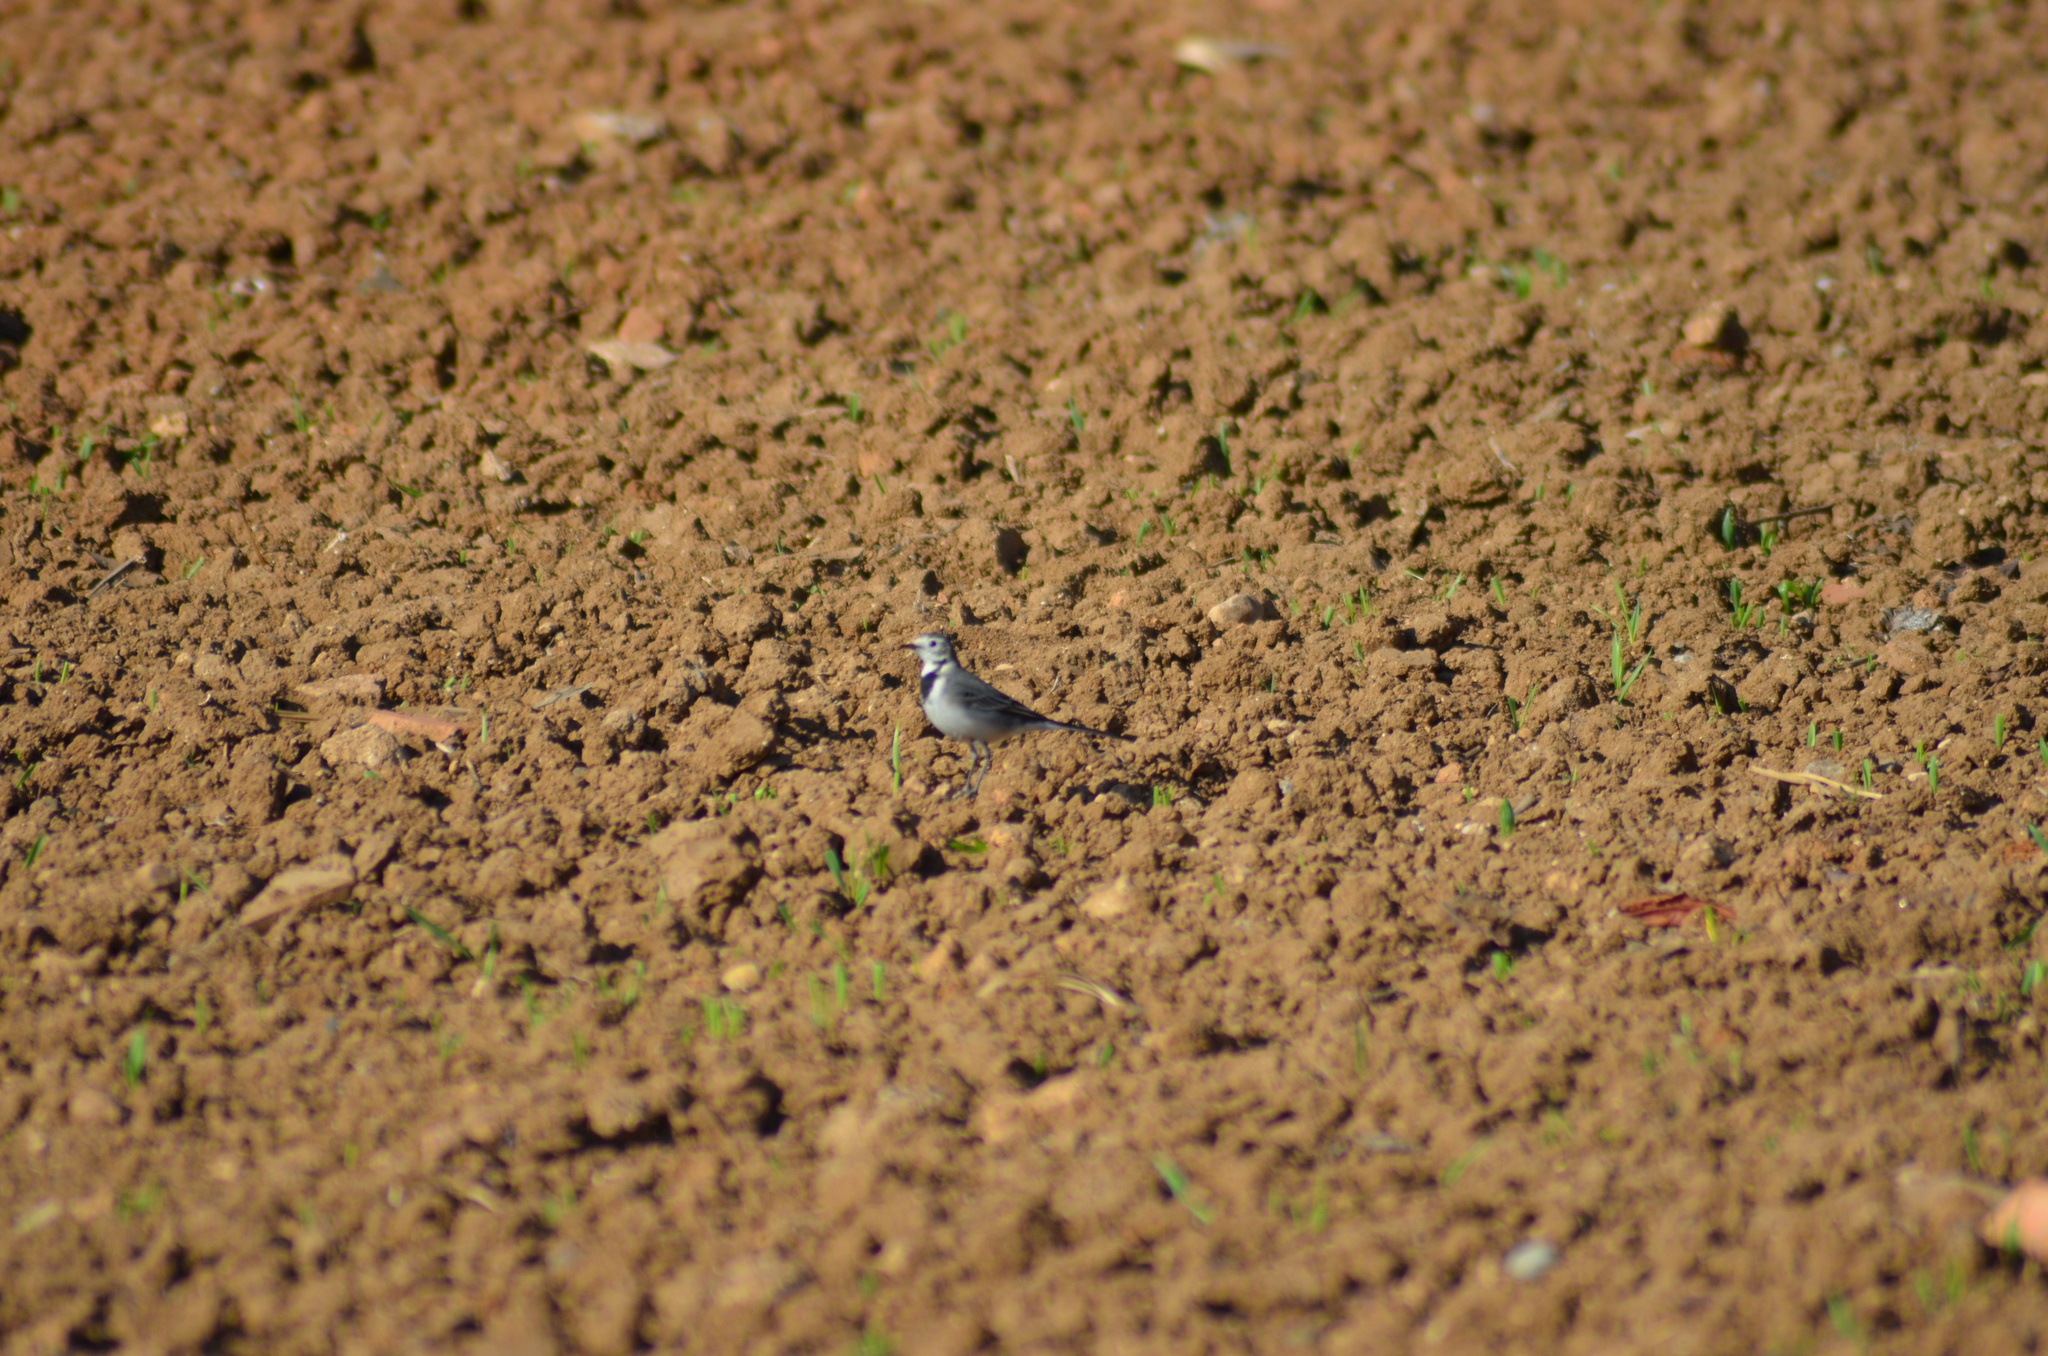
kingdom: Animalia
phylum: Chordata
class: Aves
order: Passeriformes
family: Motacillidae
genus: Motacilla
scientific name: Motacilla alba
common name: White wagtail
